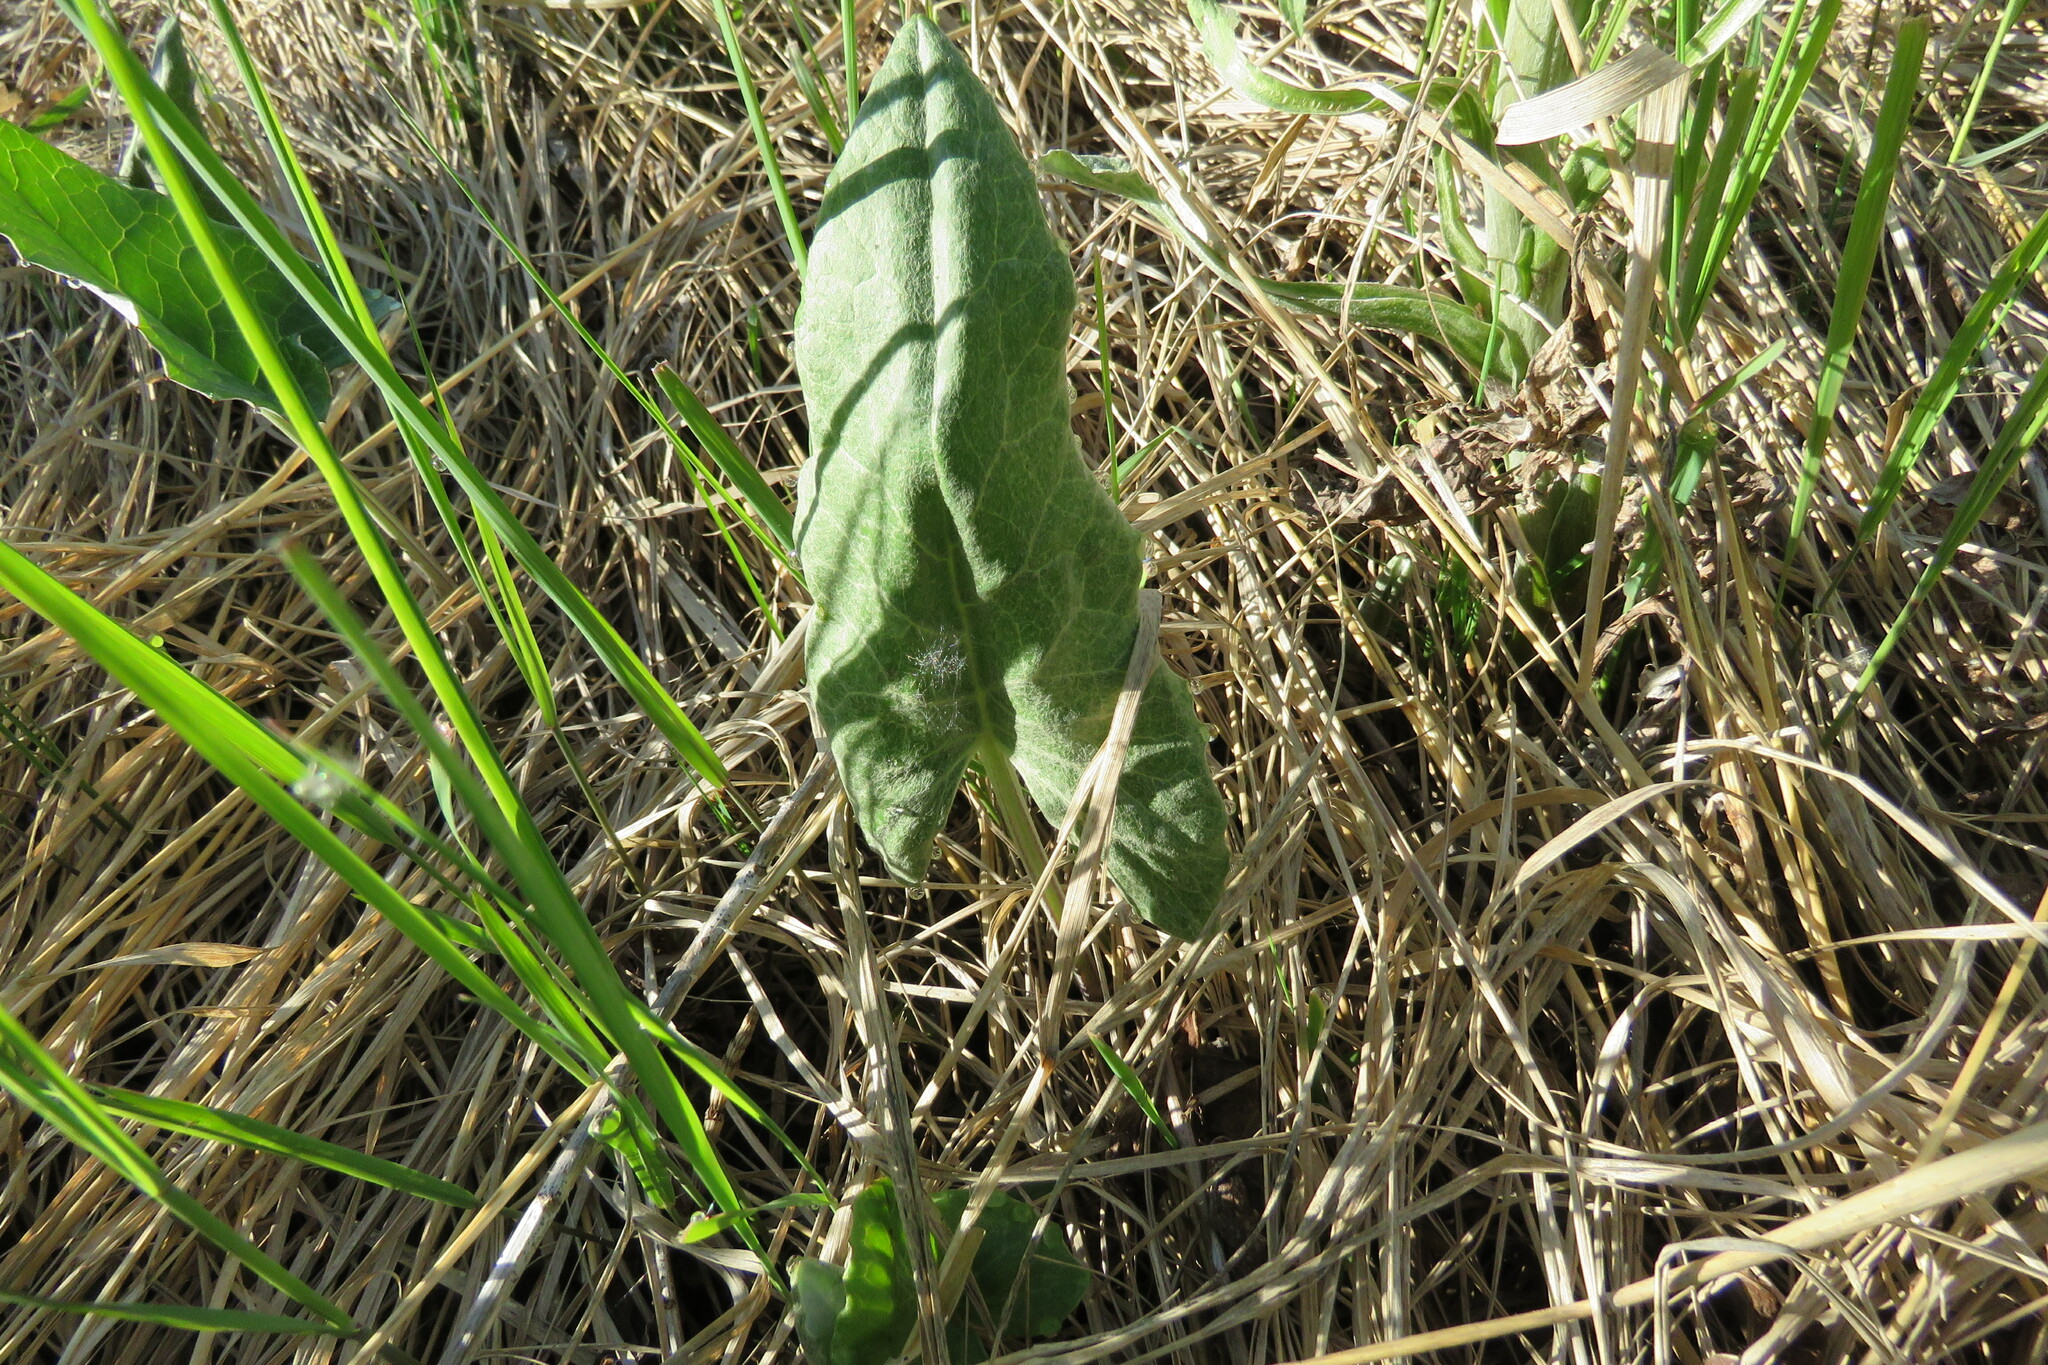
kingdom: Plantae
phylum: Tracheophyta
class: Magnoliopsida
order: Asterales
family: Asteraceae
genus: Petasites
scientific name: Petasites frigidus
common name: Arctic butterbur
